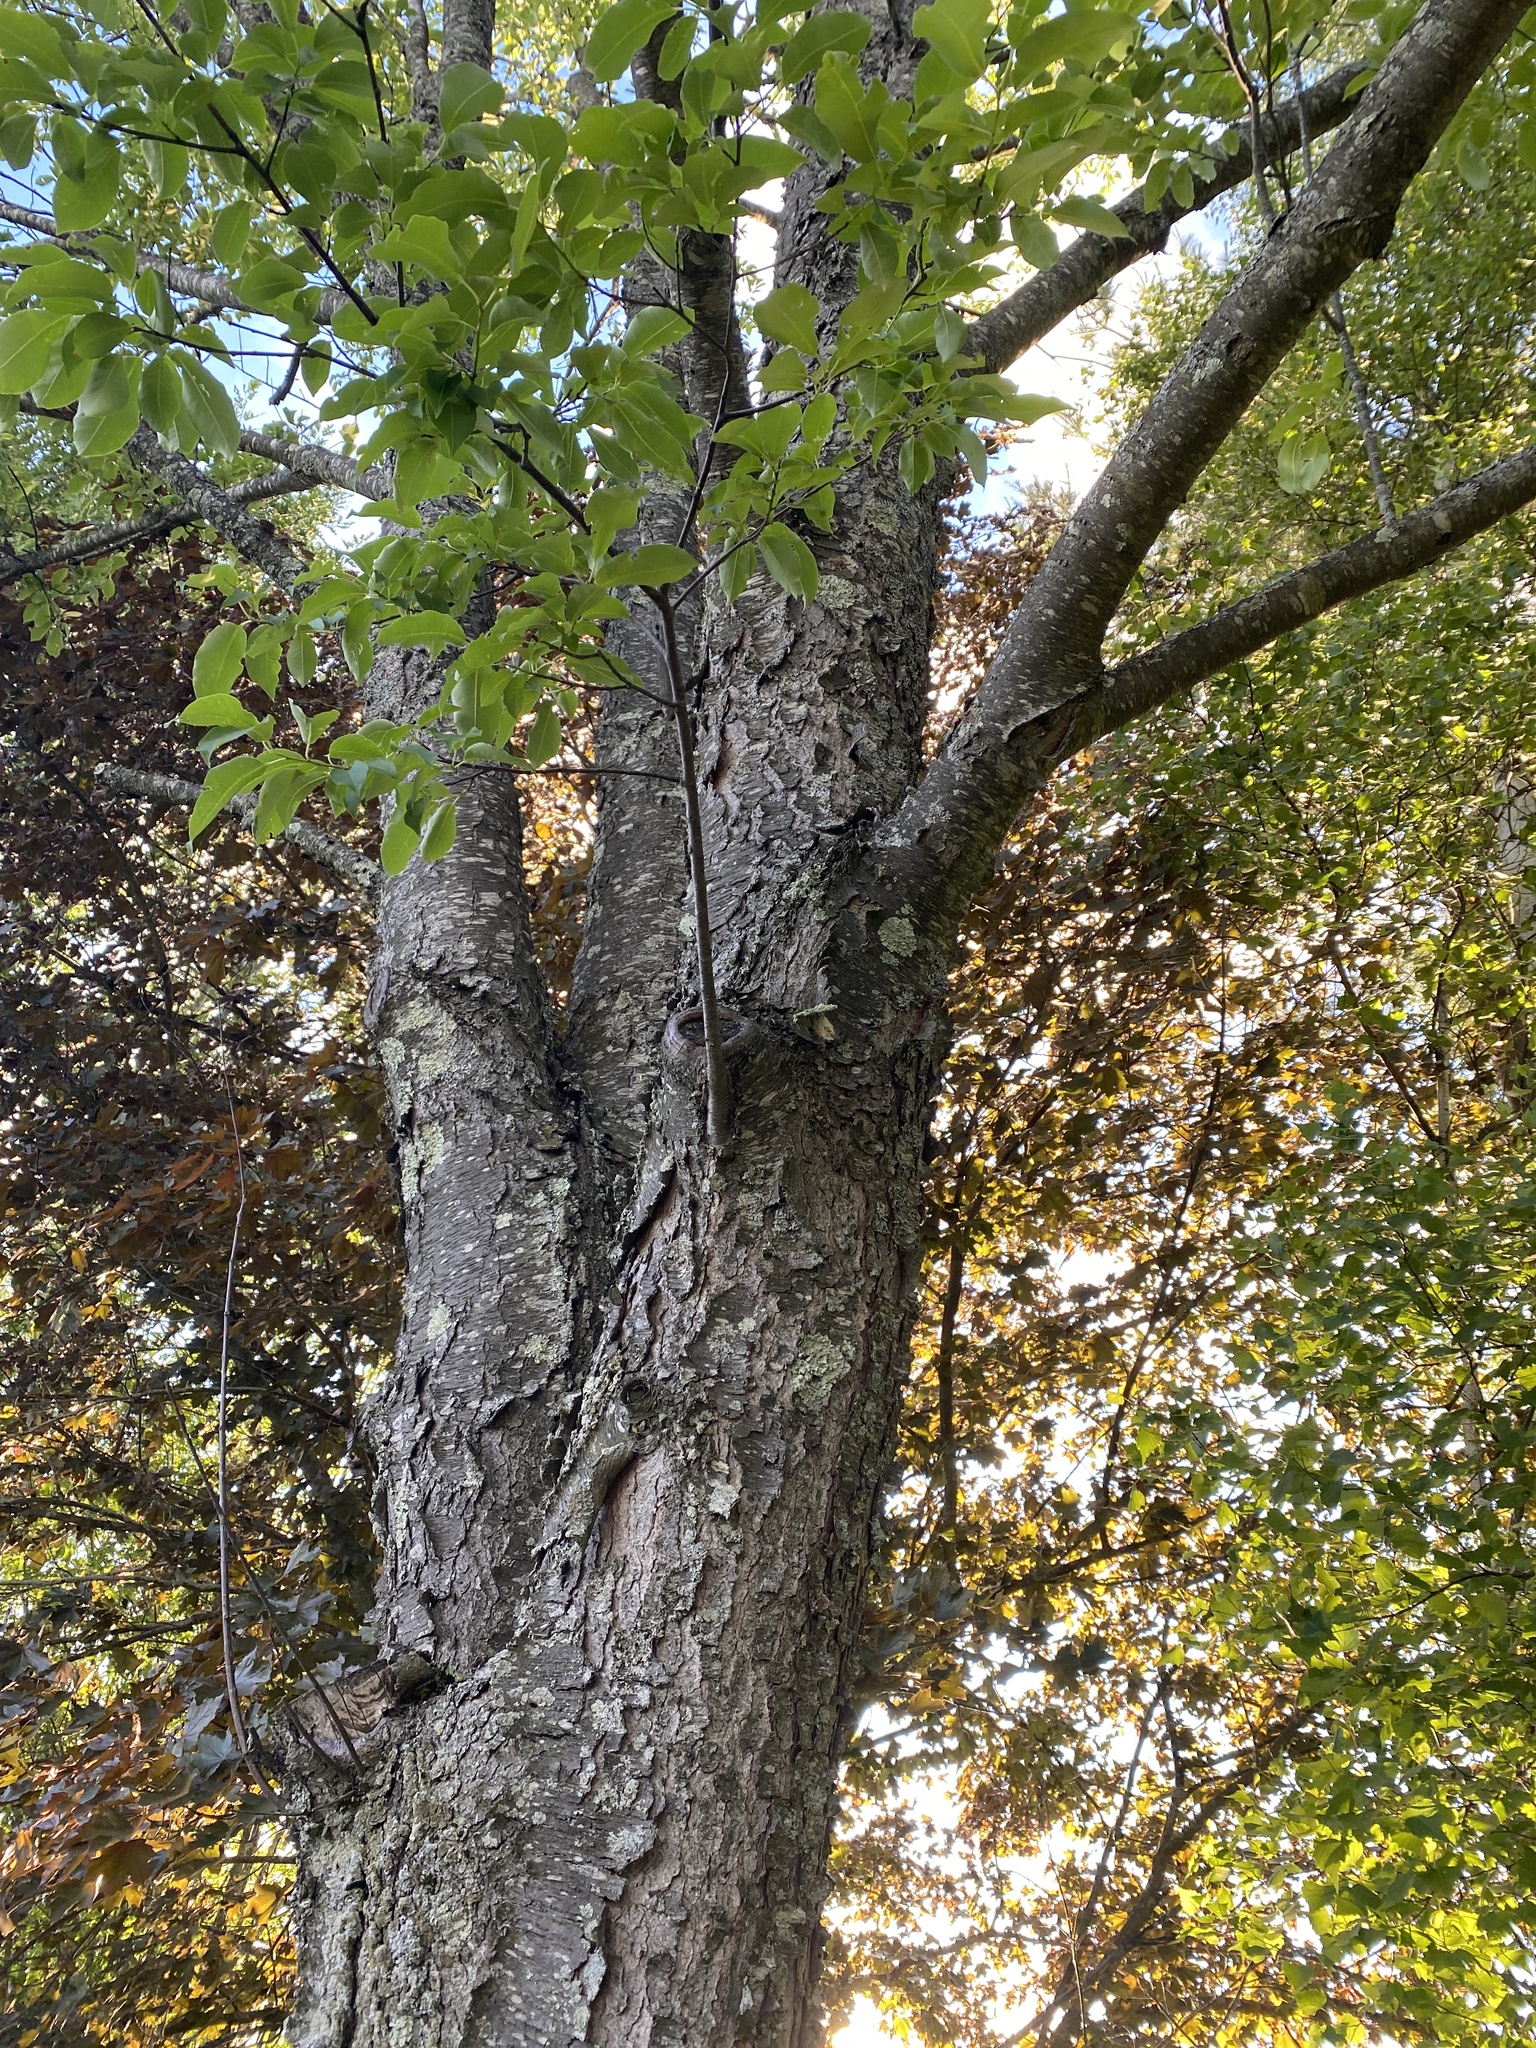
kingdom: Plantae
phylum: Tracheophyta
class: Magnoliopsida
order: Rosales
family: Rosaceae
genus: Prunus
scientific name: Prunus serotina
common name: Black cherry
